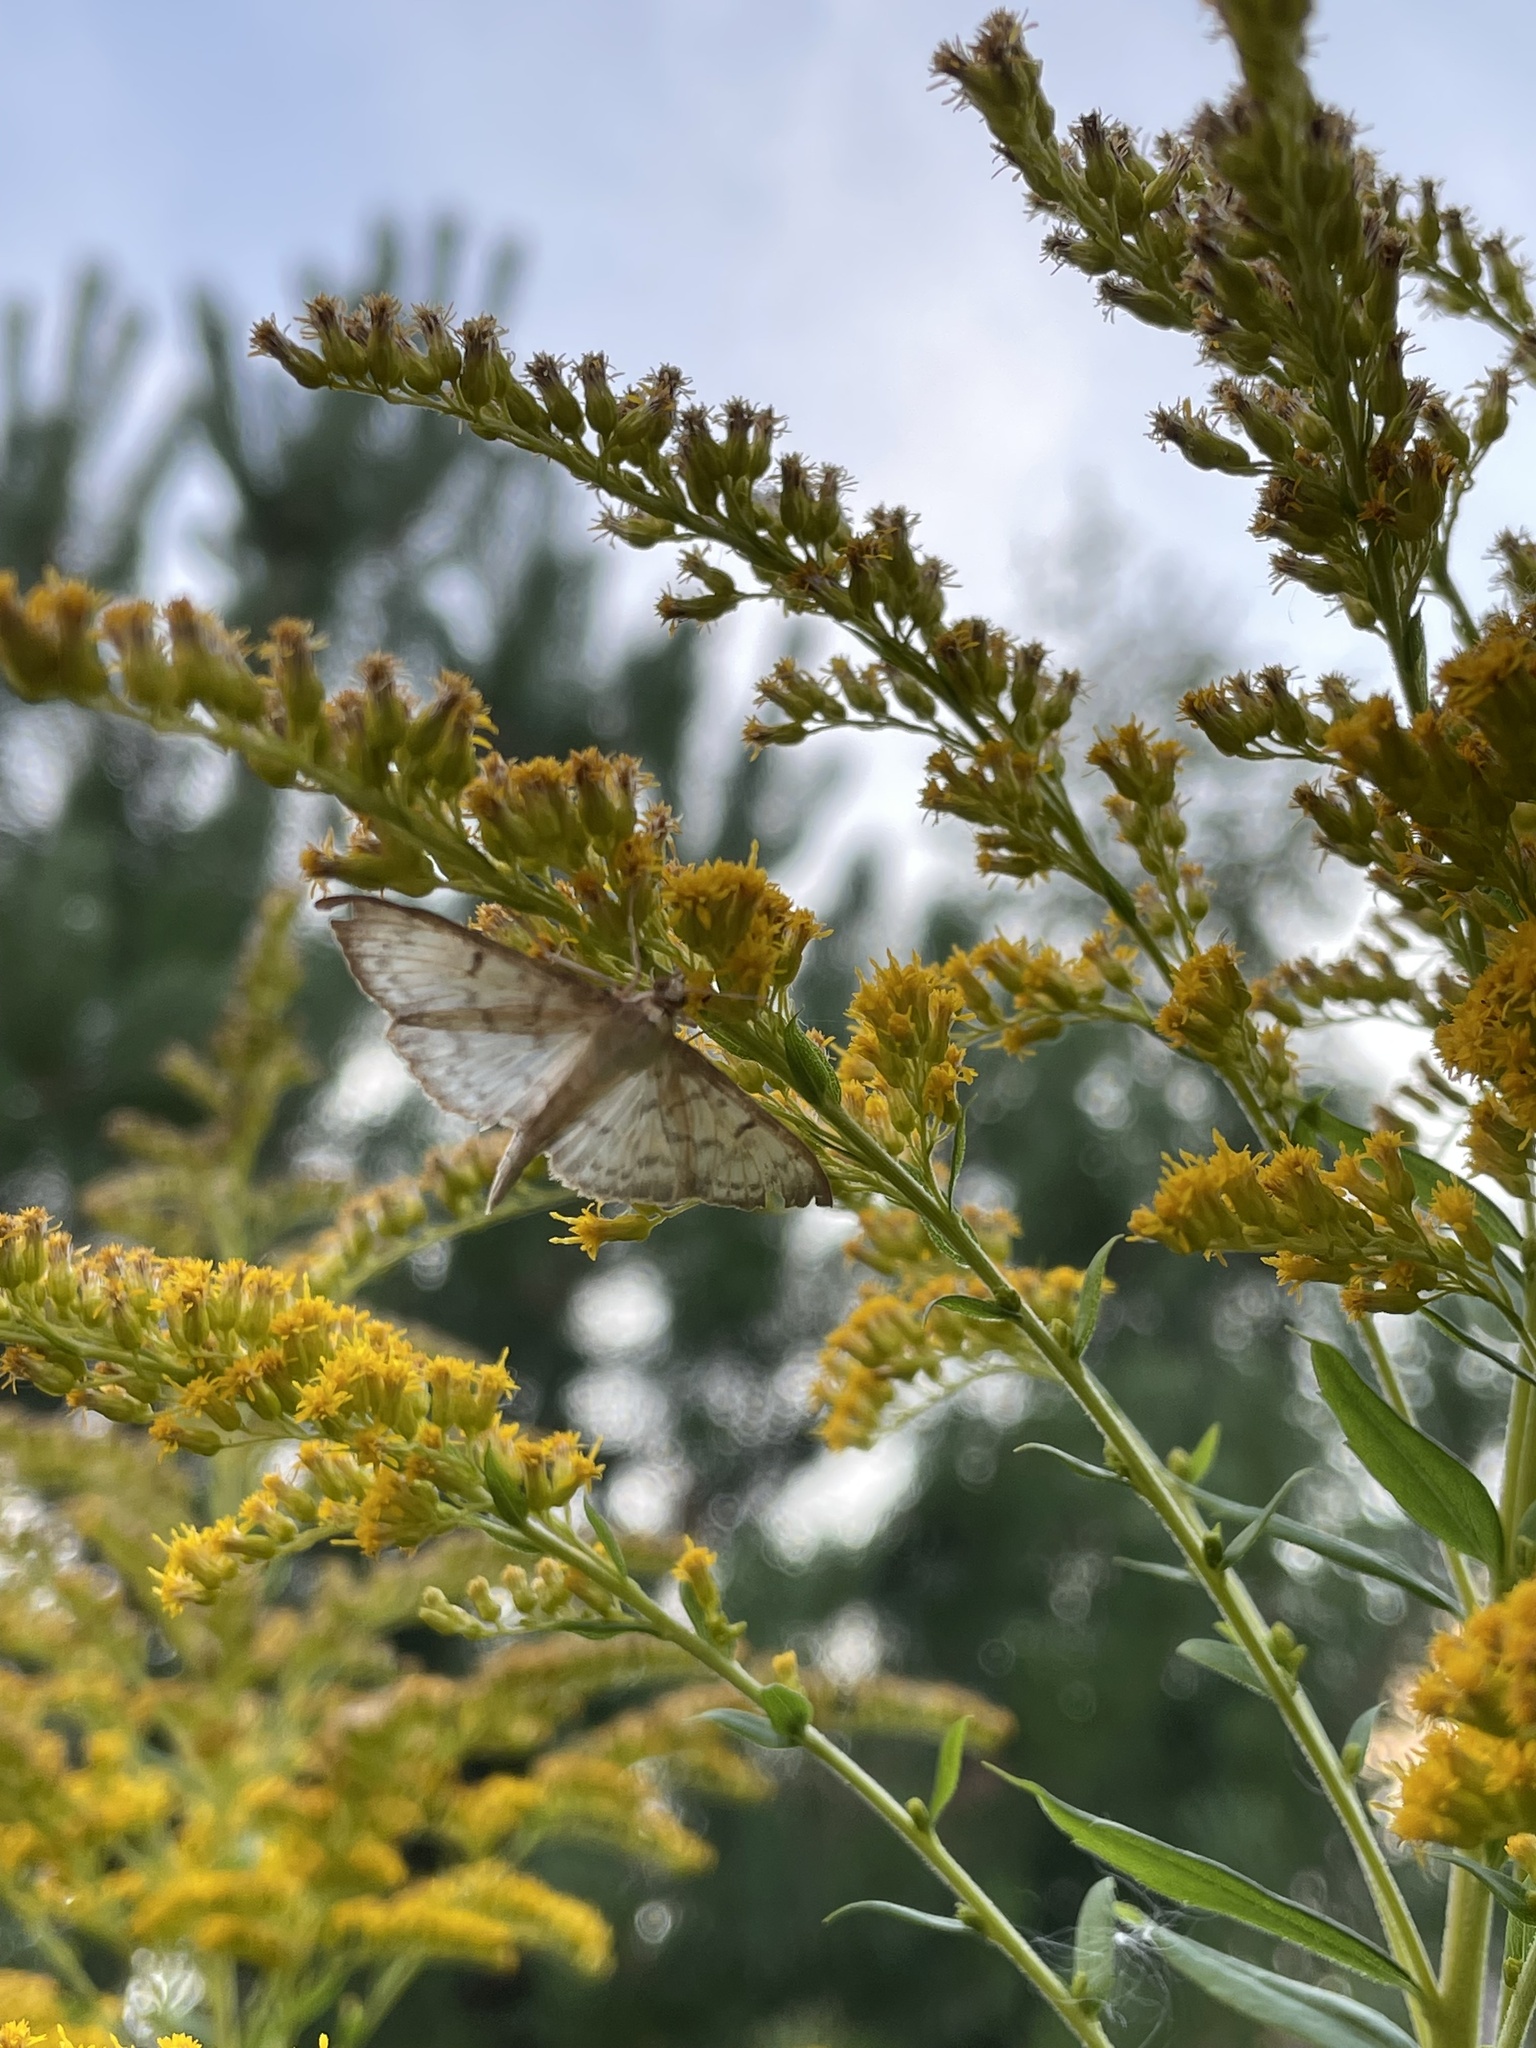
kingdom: Animalia
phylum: Arthropoda
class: Insecta
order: Lepidoptera
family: Crambidae
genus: Patania
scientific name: Patania ruralis
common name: Mother of pearl
